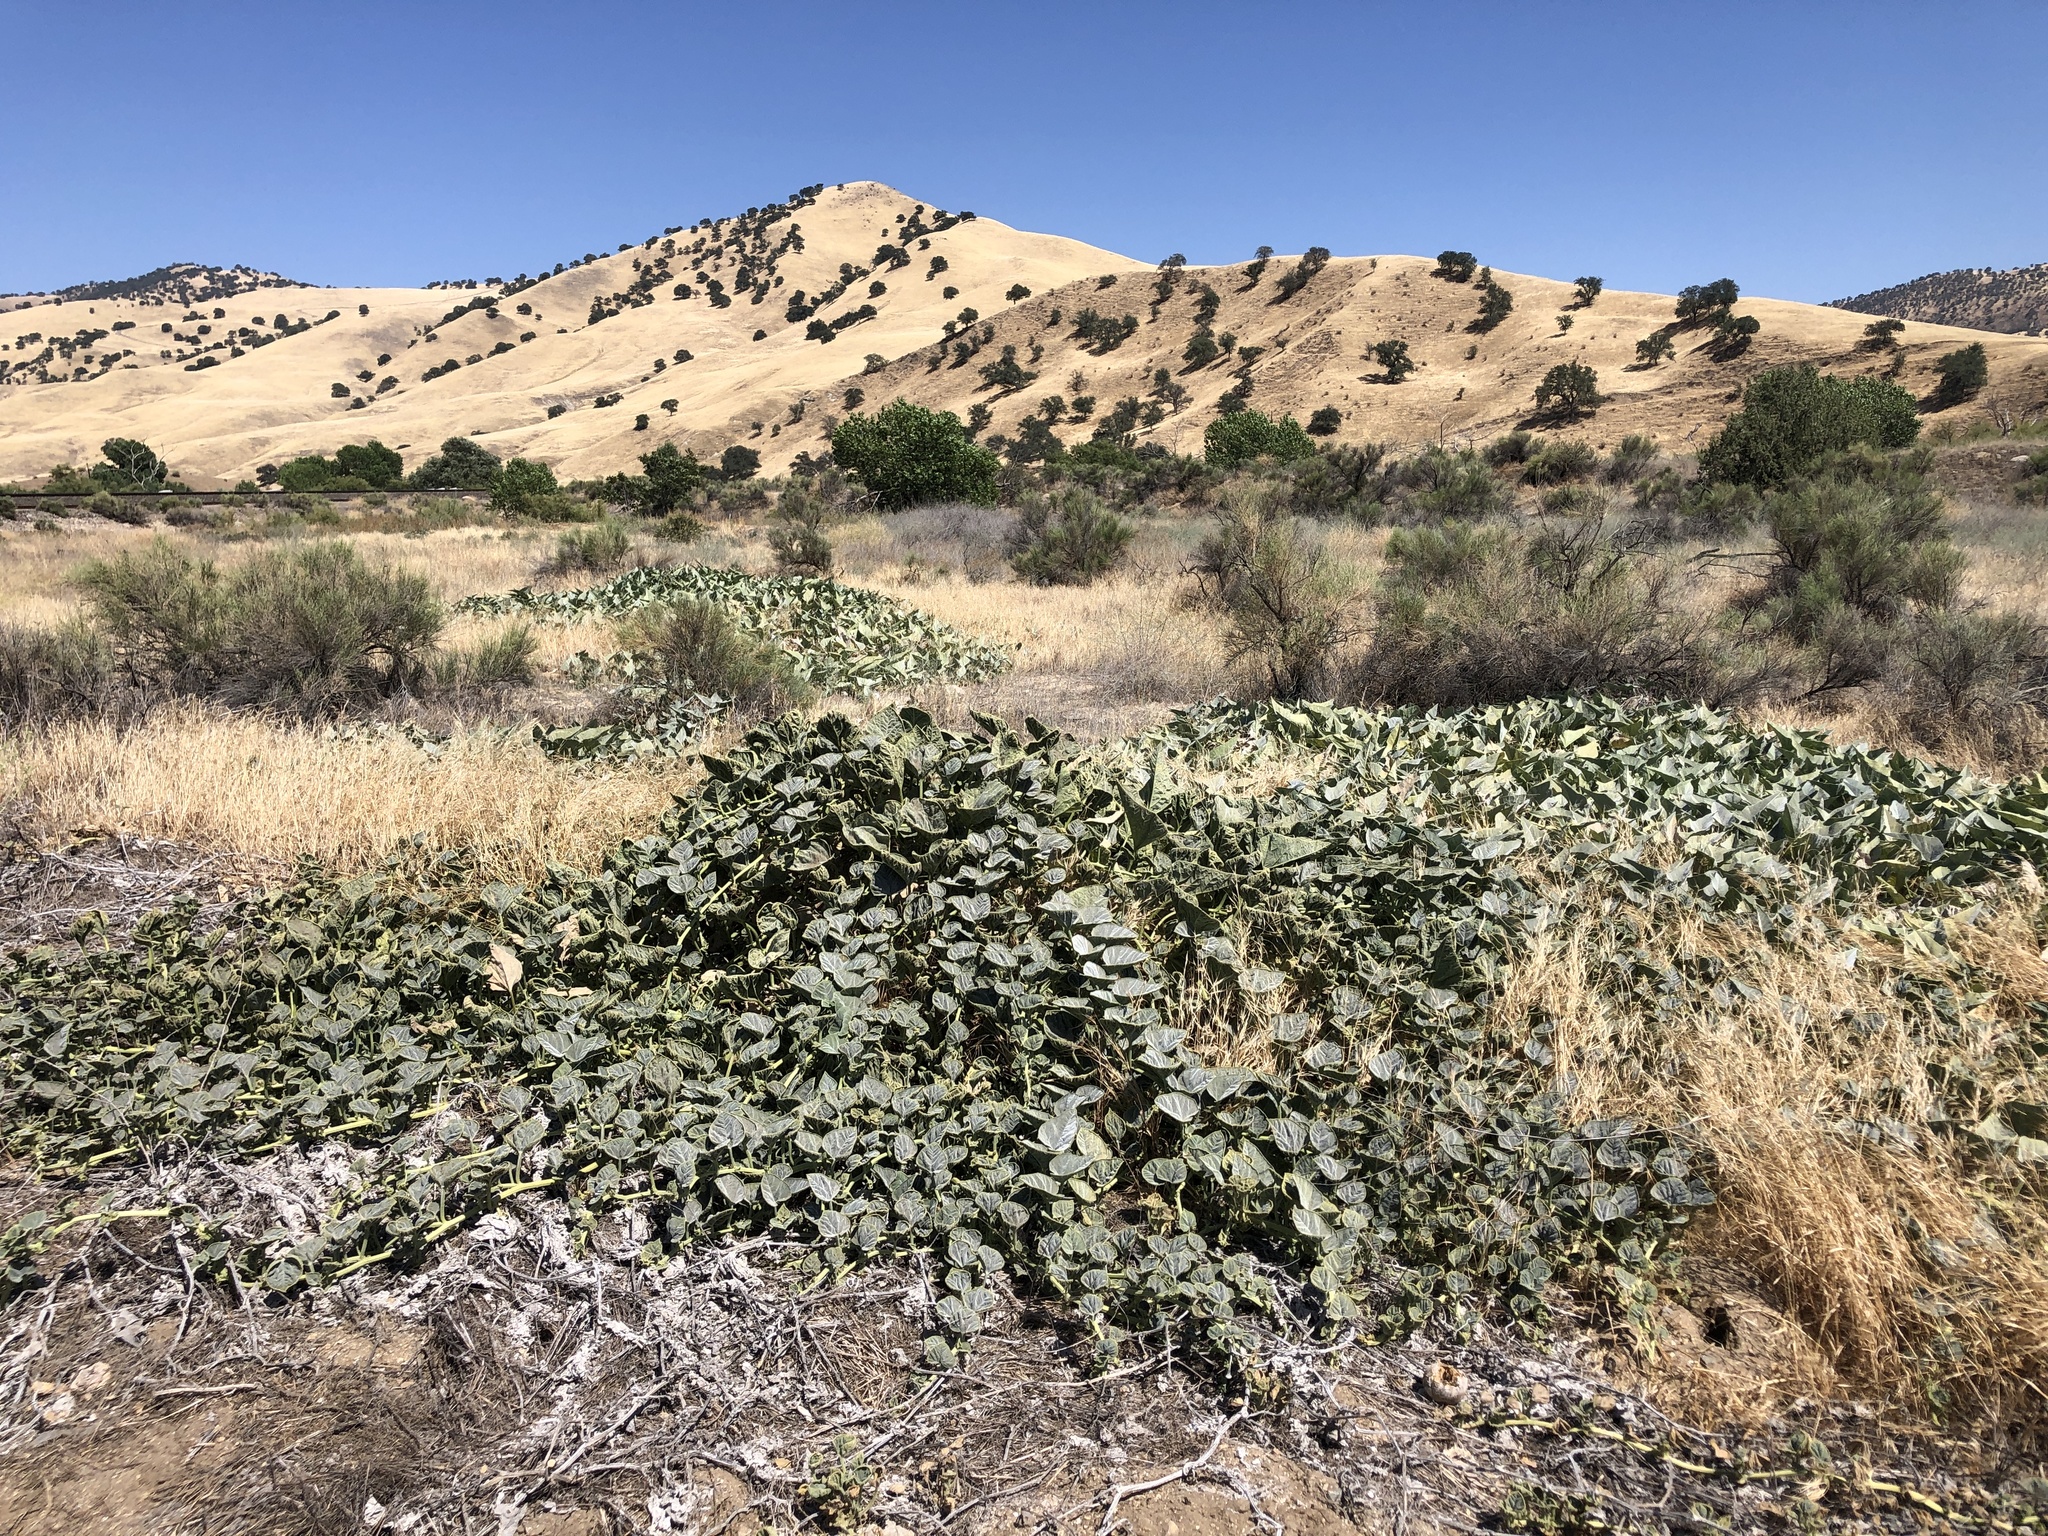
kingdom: Plantae
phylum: Tracheophyta
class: Magnoliopsida
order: Cucurbitales
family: Cucurbitaceae
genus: Cucurbita
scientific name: Cucurbita foetidissima
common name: Buffalo gourd
